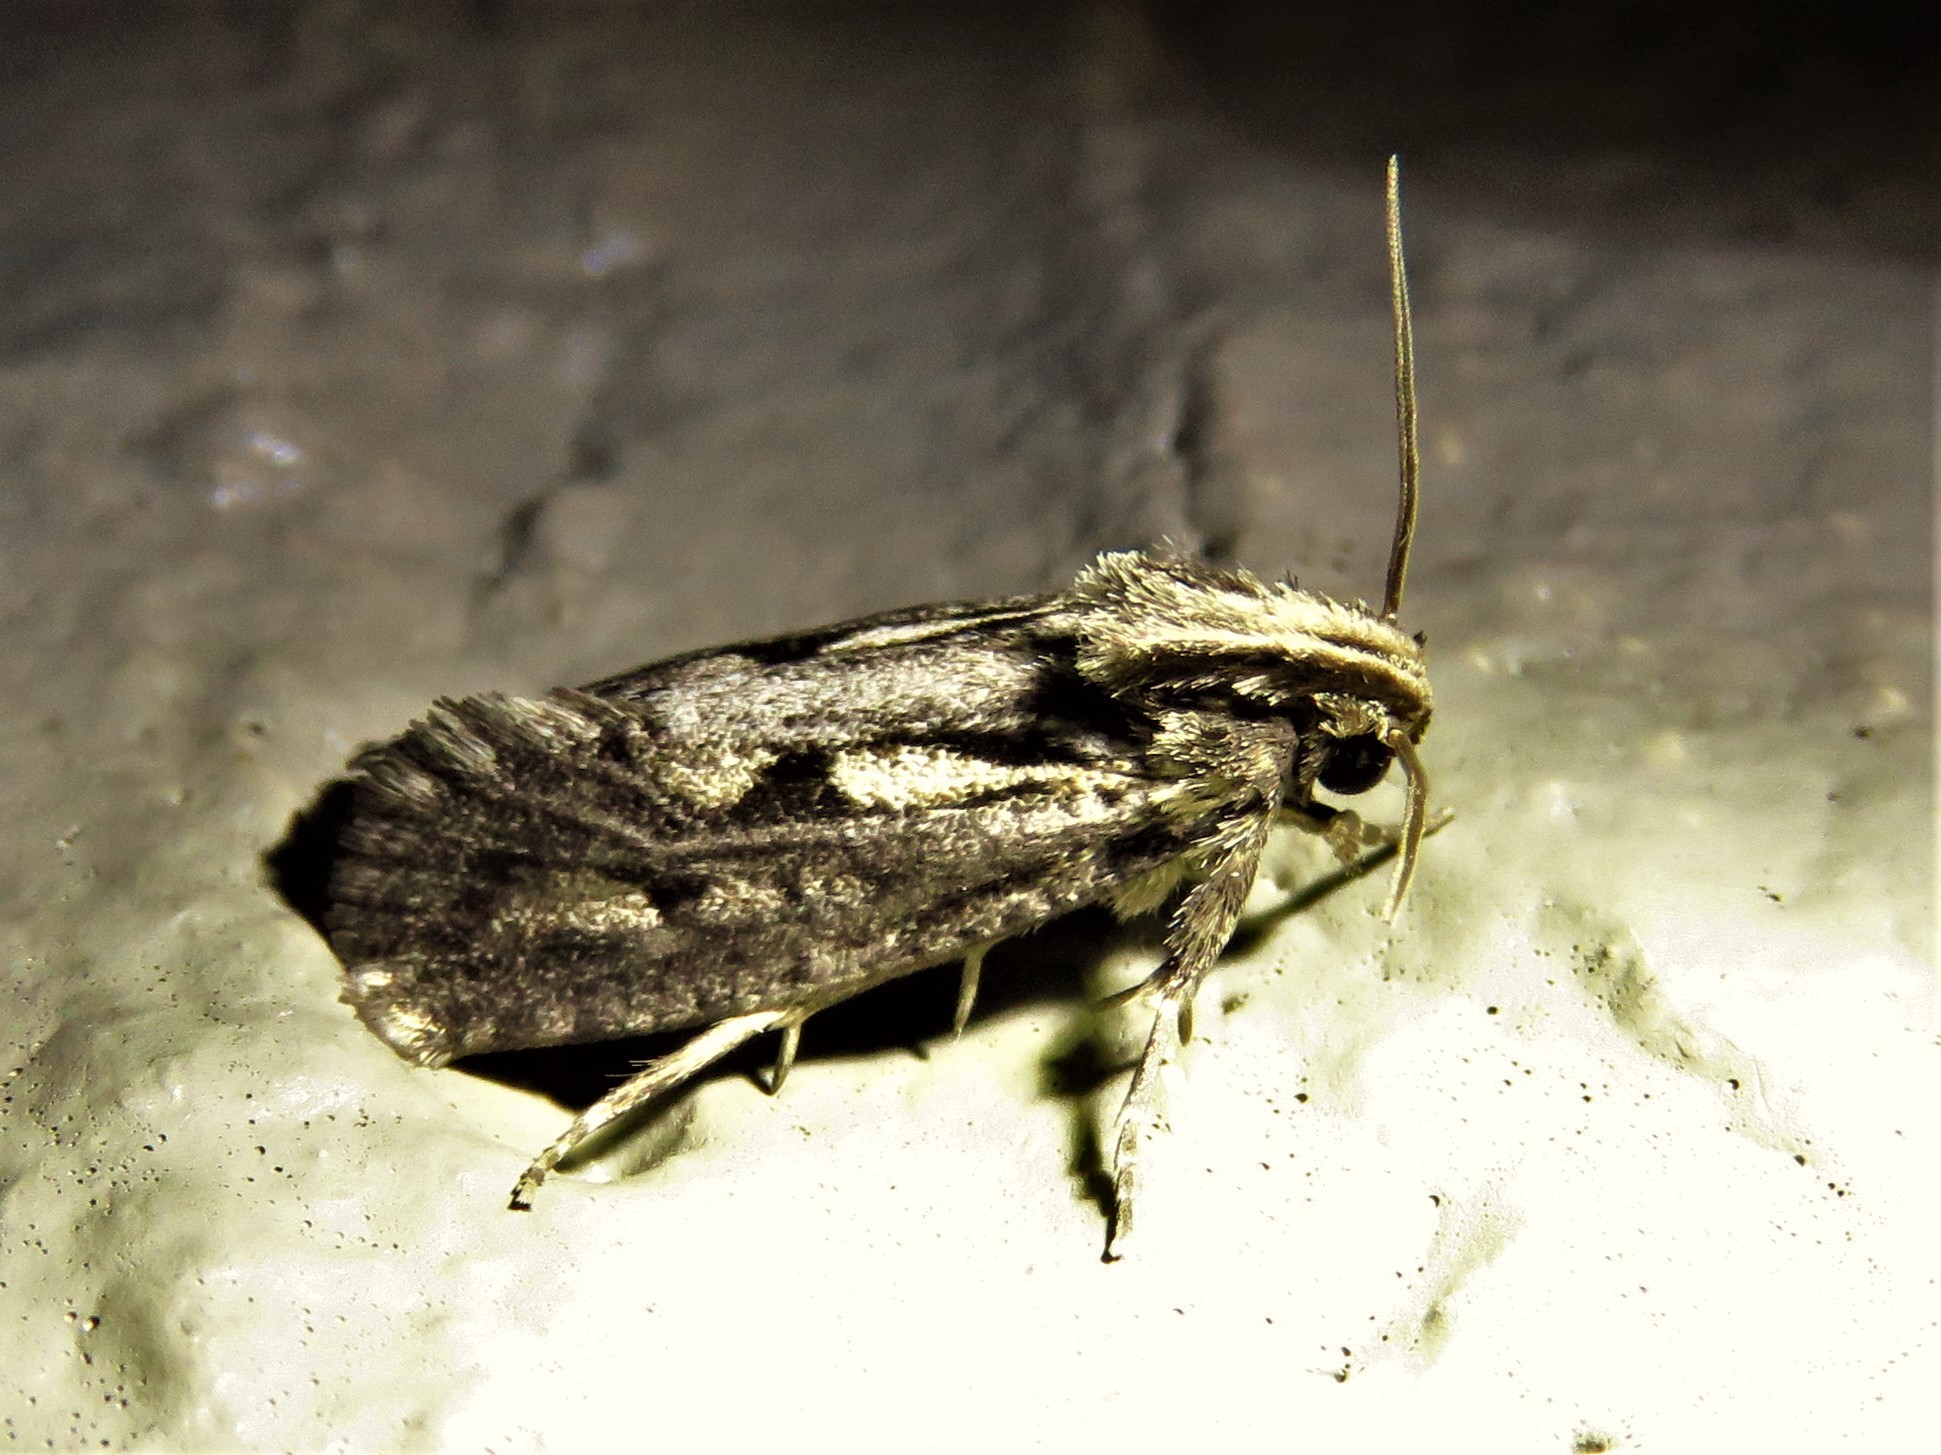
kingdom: Animalia
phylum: Arthropoda
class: Insecta
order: Lepidoptera
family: Tineidae
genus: Acrolophus
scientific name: Acrolophus popeanella
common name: Clemens' grass tubeworm moth
